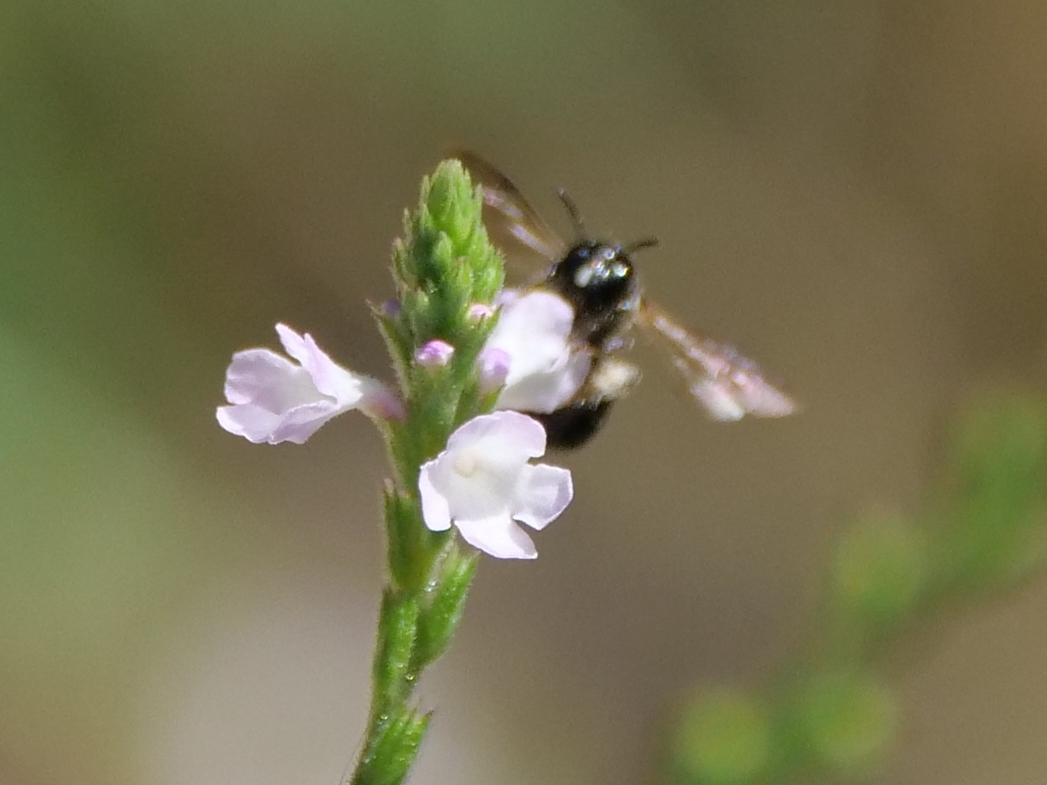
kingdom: Animalia
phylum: Arthropoda
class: Insecta
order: Hymenoptera
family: Apidae
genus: Ceratina
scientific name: Ceratina cucurbitina
